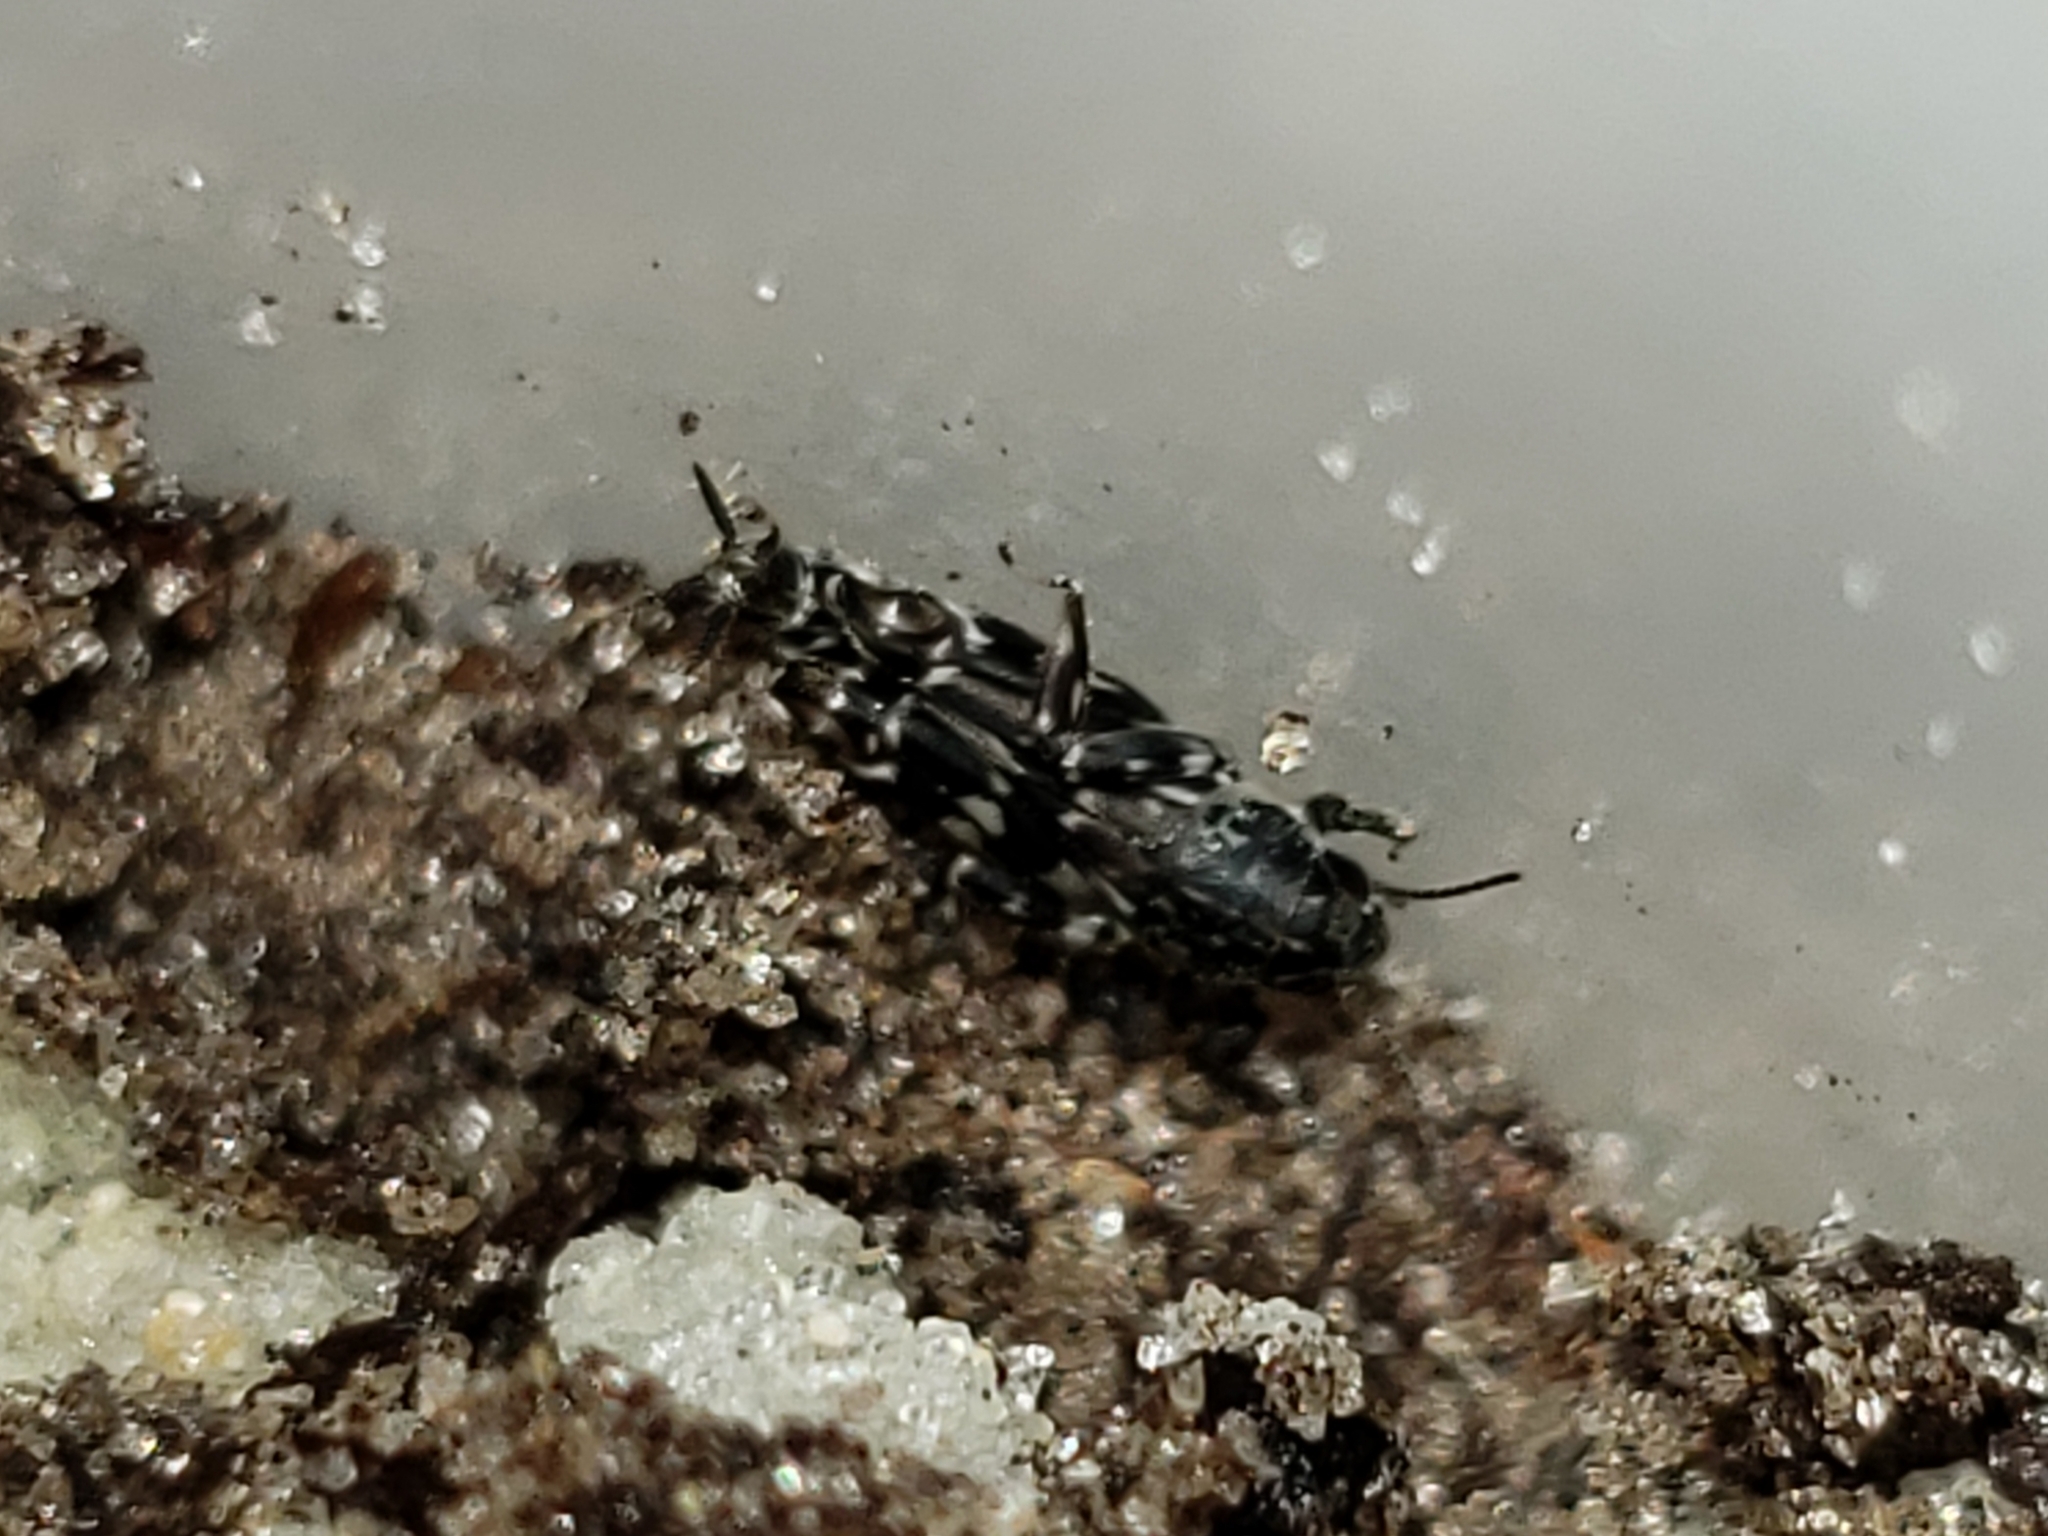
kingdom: Animalia
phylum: Arthropoda
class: Insecta
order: Orthoptera
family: Tridactylidae
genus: Ellipes
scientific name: Ellipes minuta
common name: Minute pygmy locust
